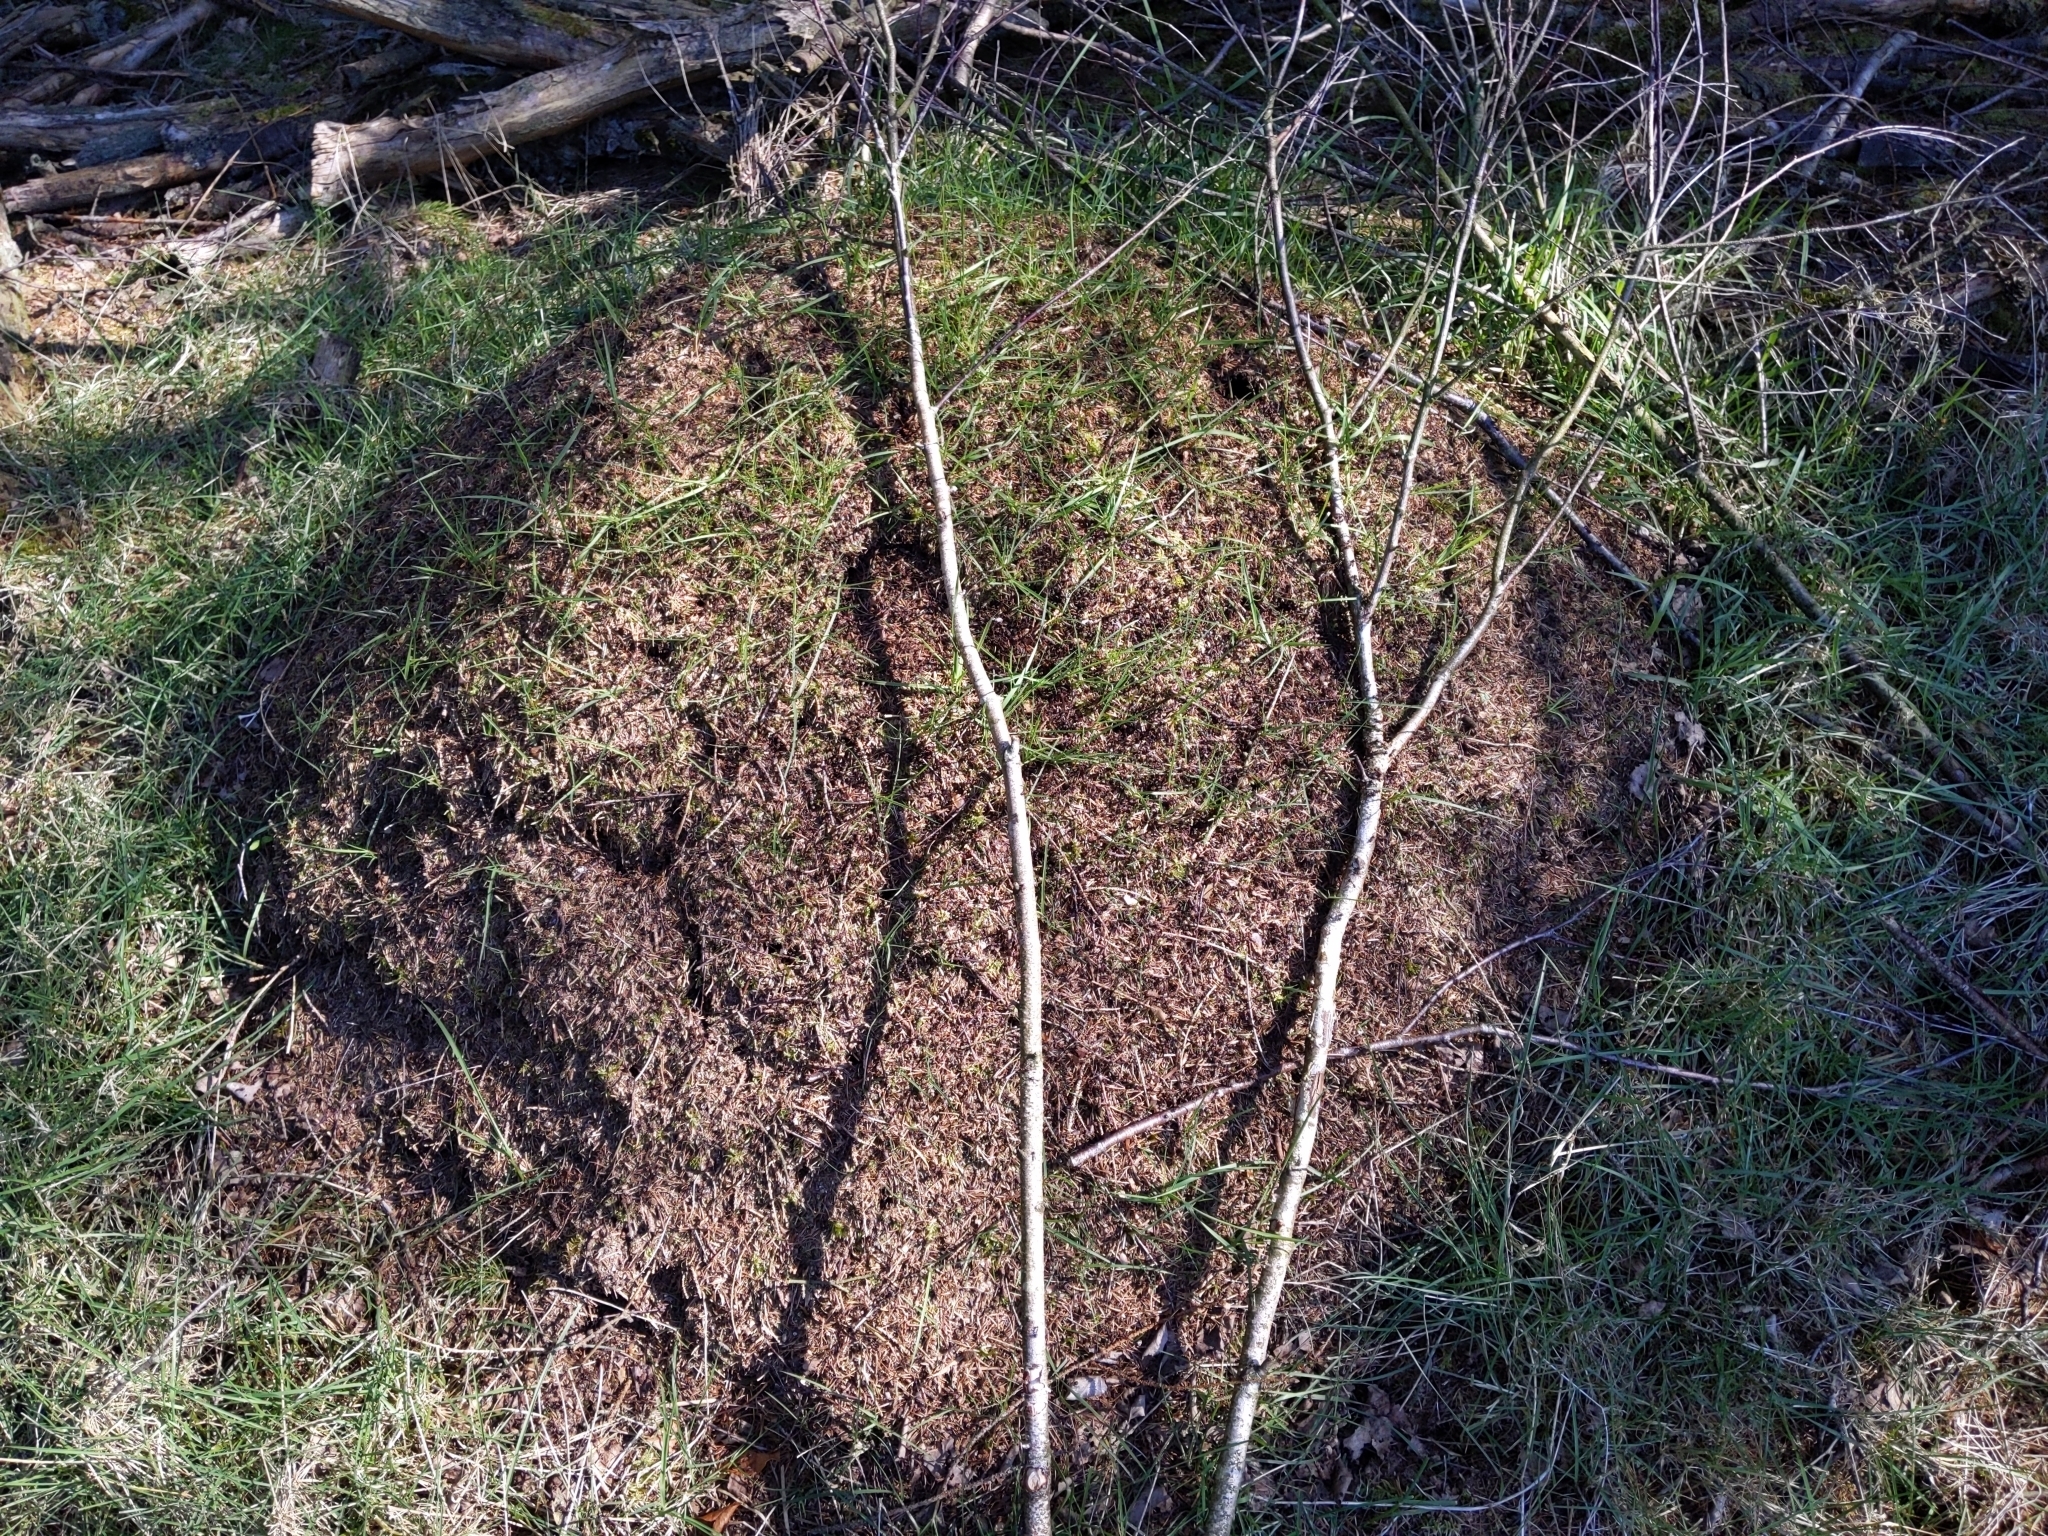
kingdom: Animalia
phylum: Arthropoda
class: Insecta
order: Hymenoptera
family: Formicidae
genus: Formica
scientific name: Formica rufa
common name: Red wood ant
